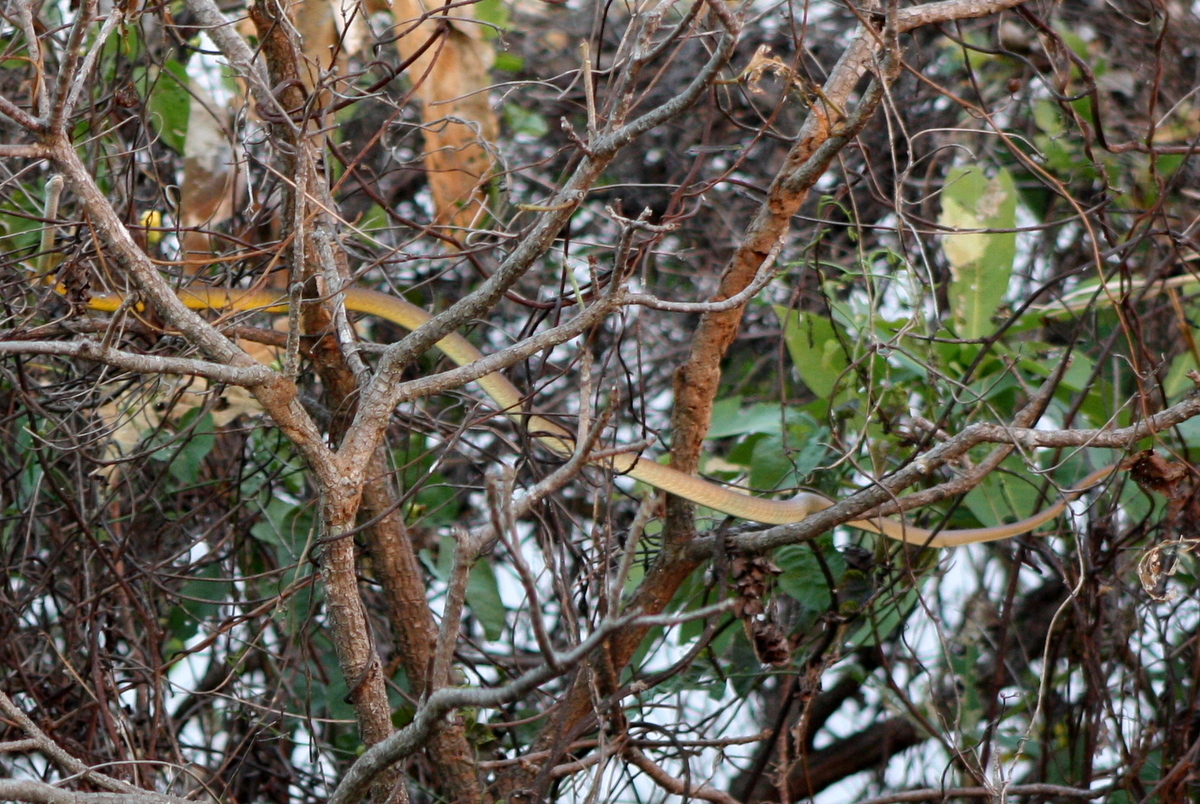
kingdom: Animalia
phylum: Chordata
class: Squamata
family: Colubridae
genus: Dendrelaphis
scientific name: Dendrelaphis punctulatus
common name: Common tree snake
